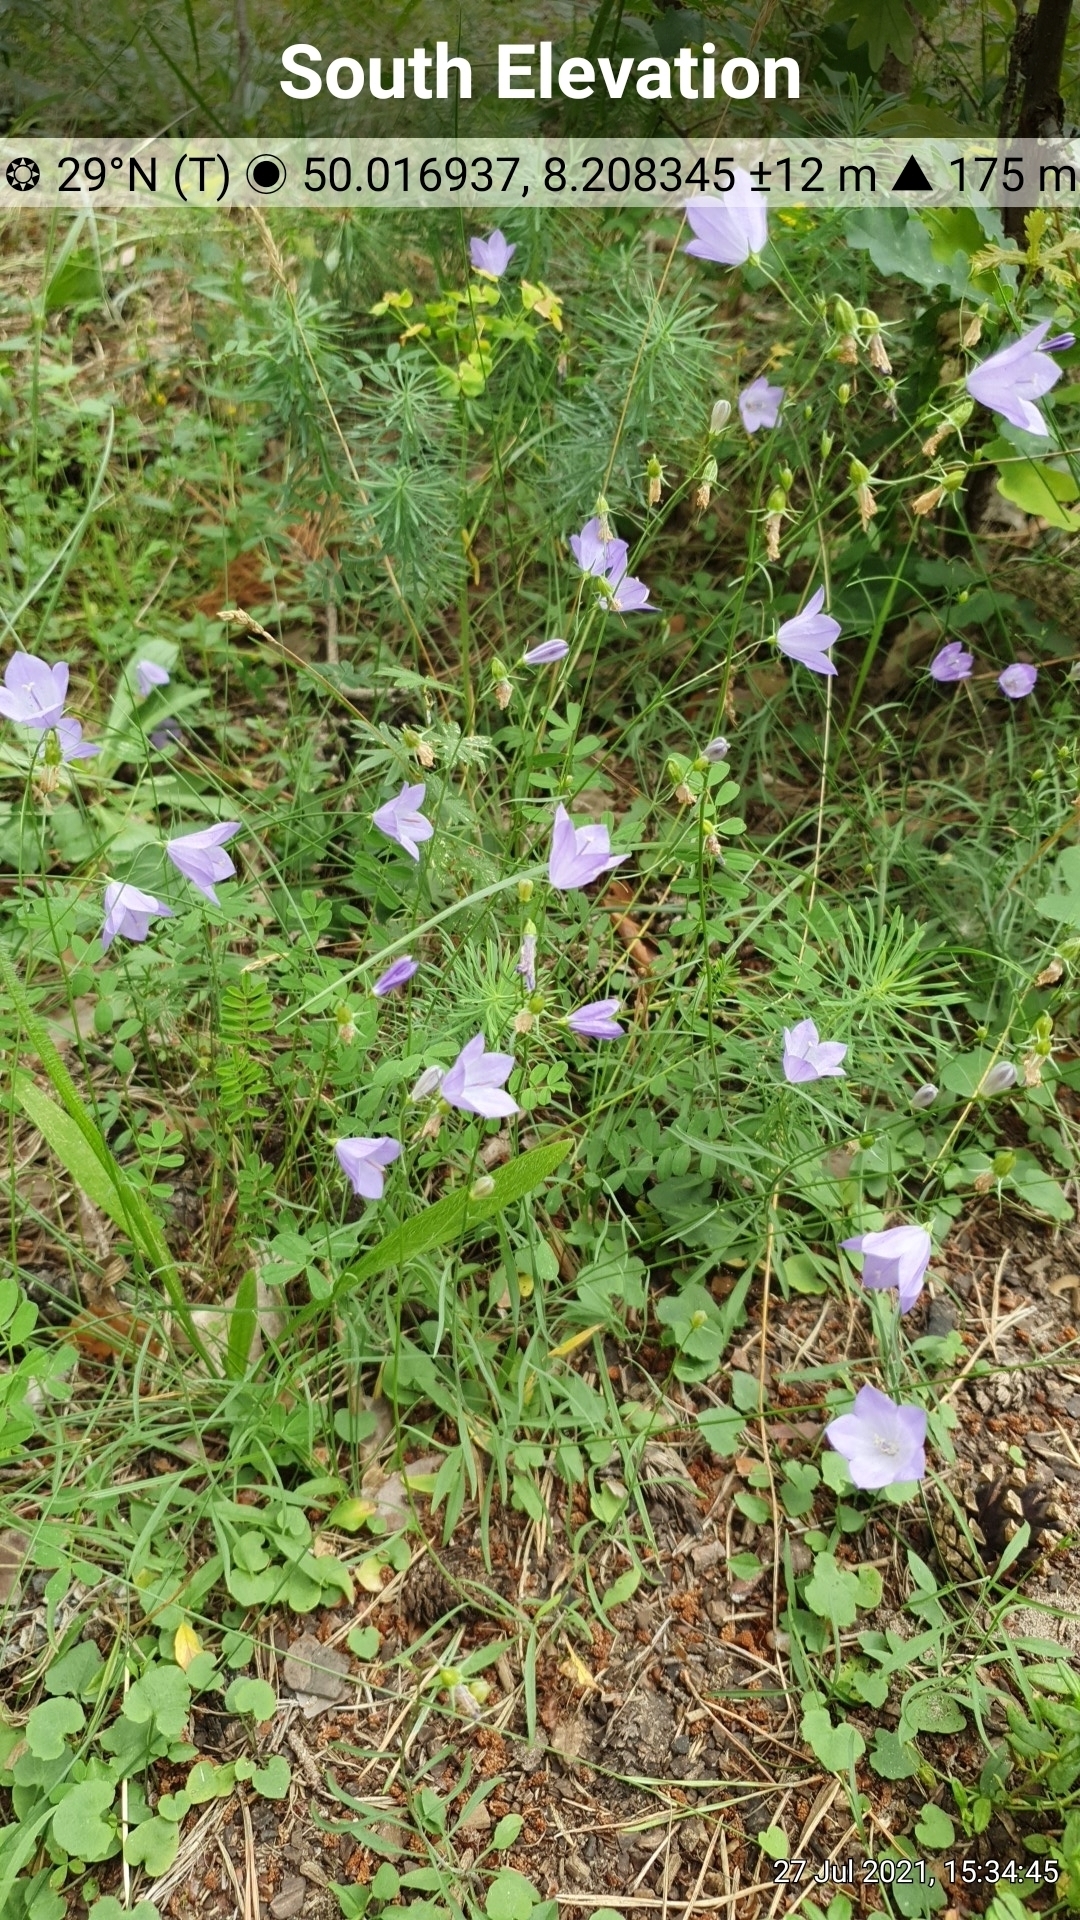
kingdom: Plantae
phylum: Tracheophyta
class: Magnoliopsida
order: Asterales
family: Campanulaceae
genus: Campanula
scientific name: Campanula rotundifolia
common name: Harebell
